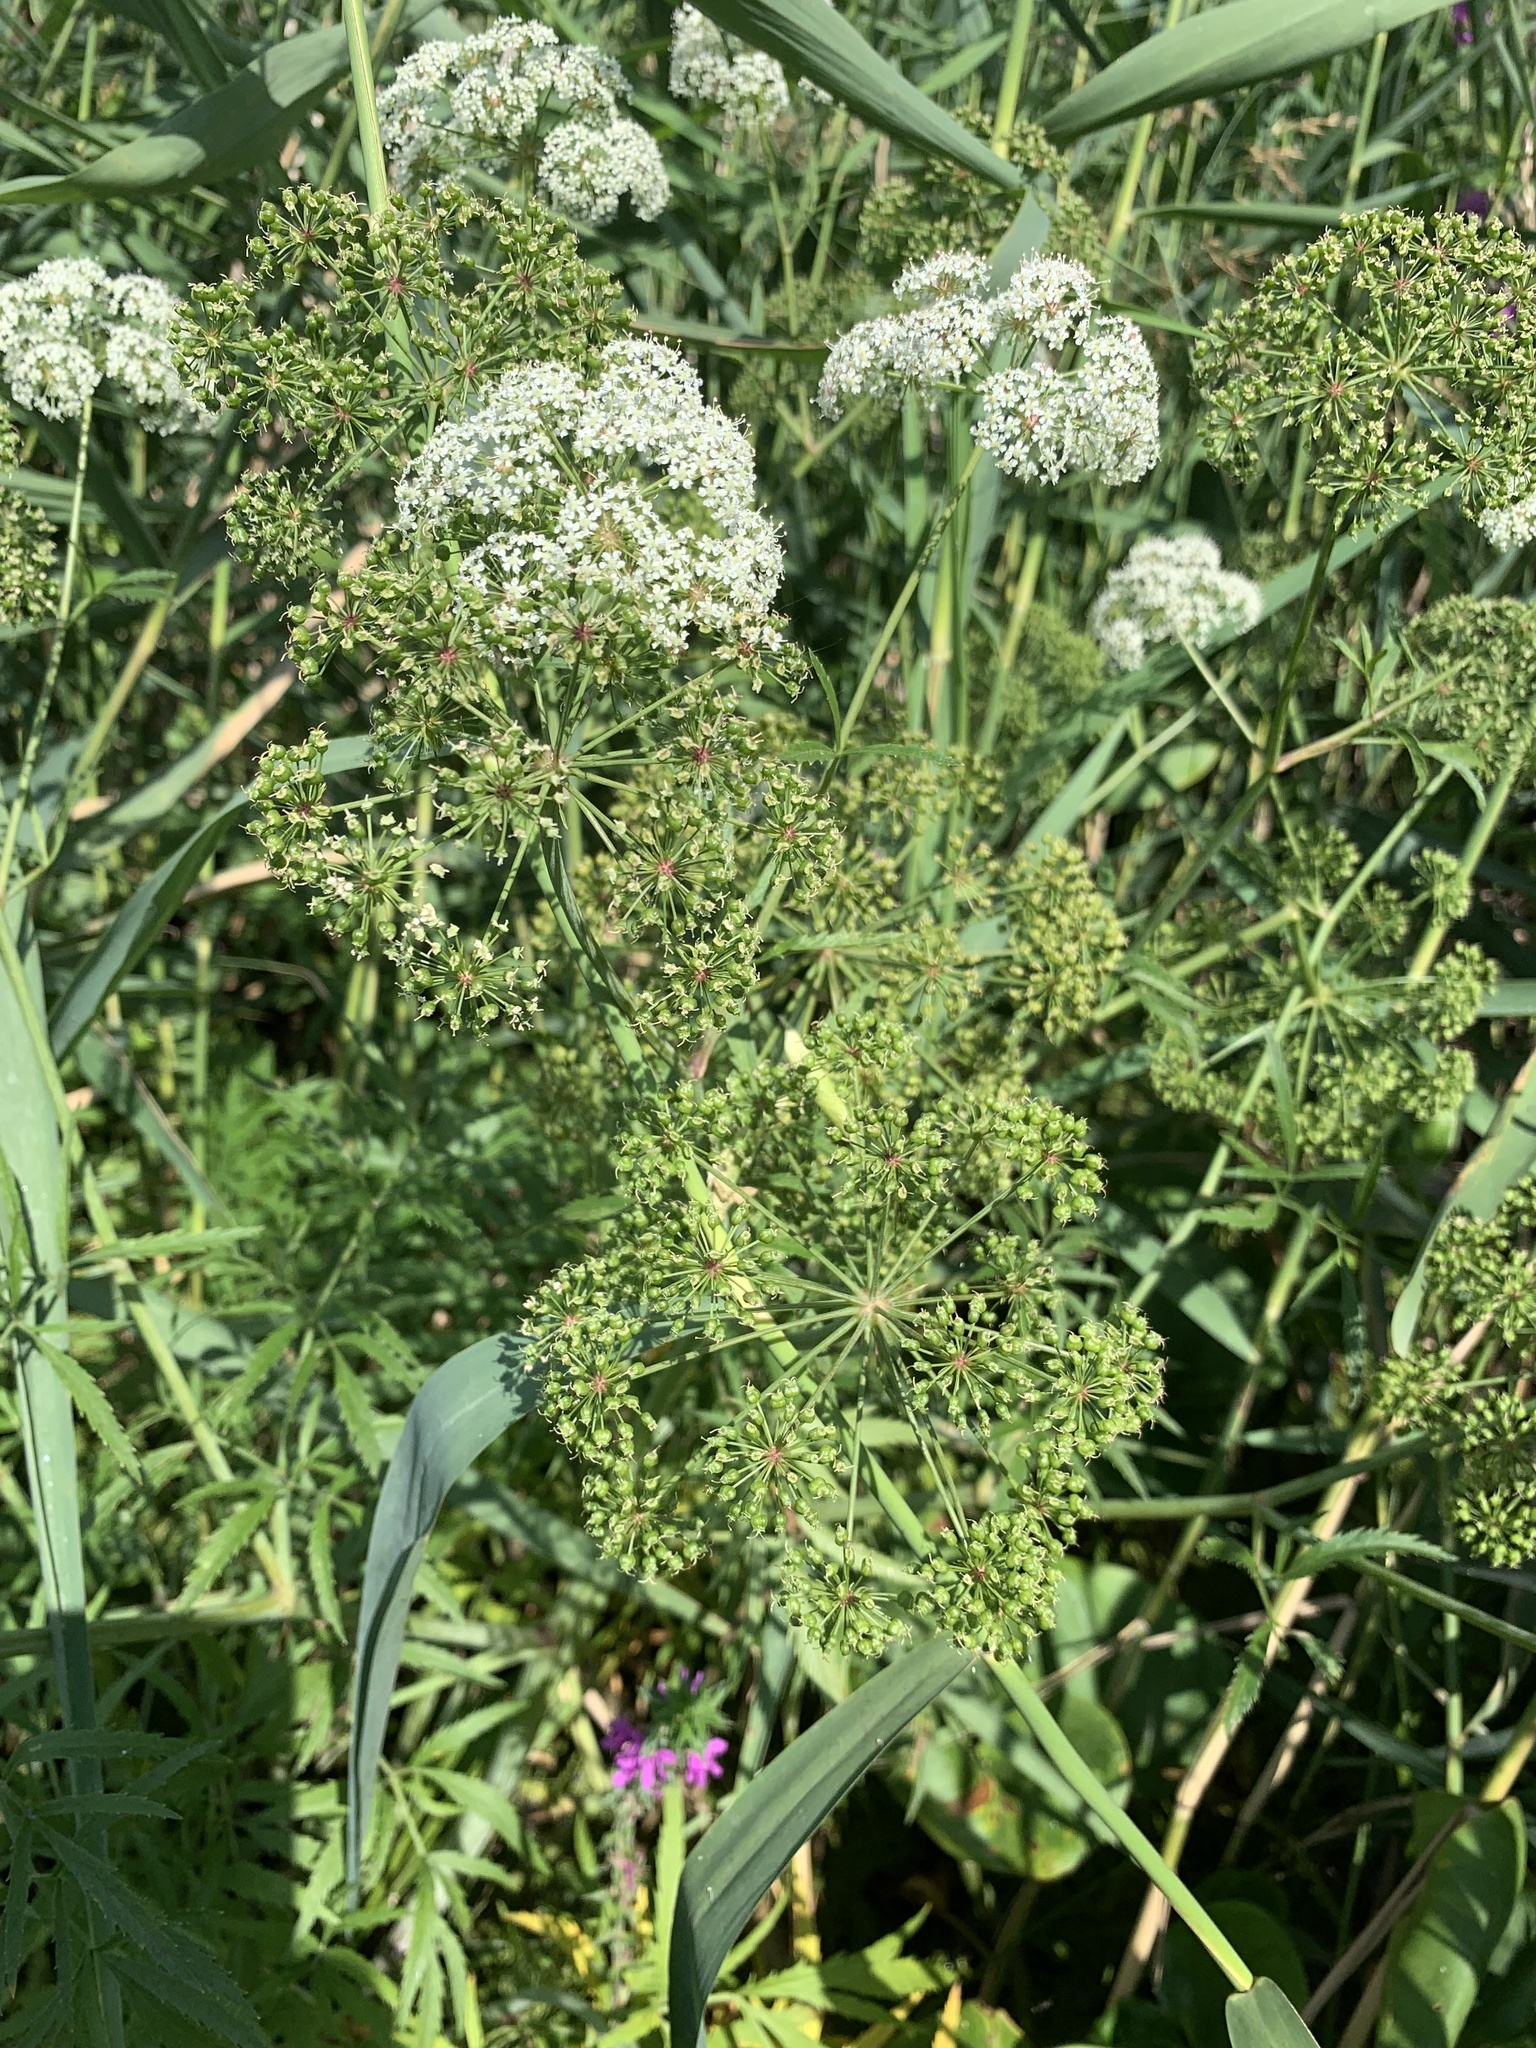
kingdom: Plantae
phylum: Tracheophyta
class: Magnoliopsida
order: Apiales
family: Apiaceae
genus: Cicuta
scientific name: Cicuta virosa
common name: Cowbane
